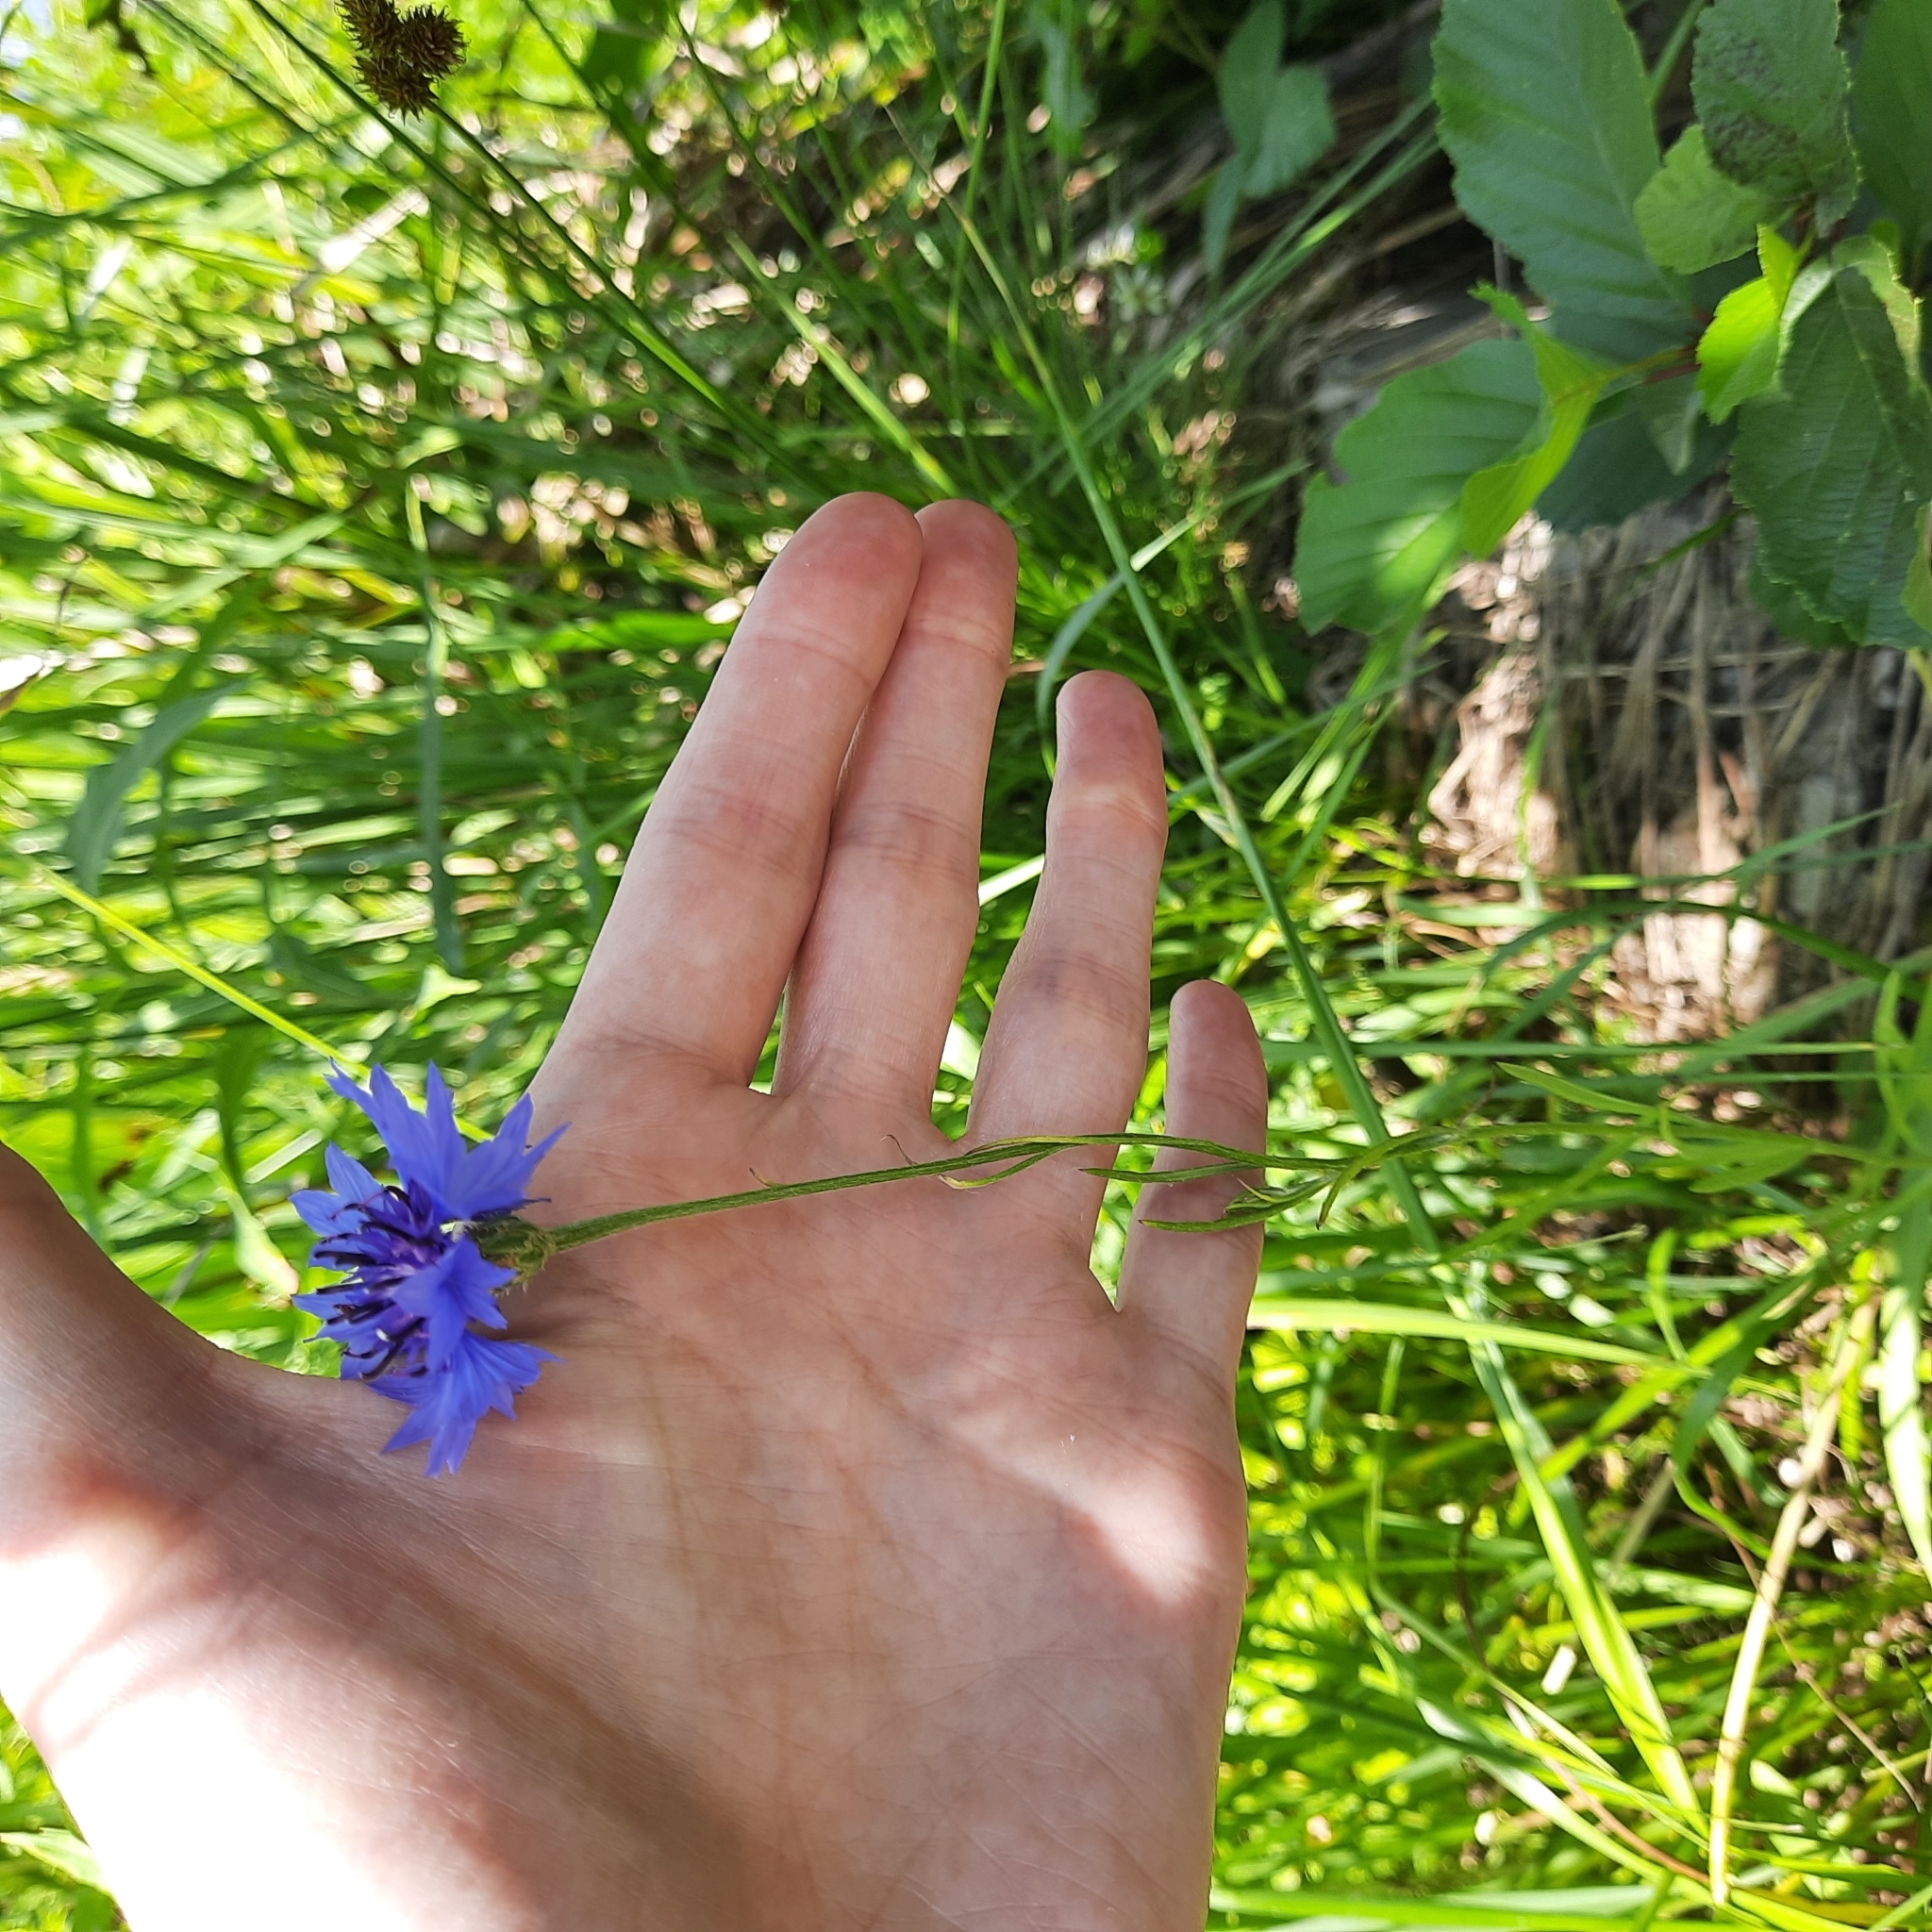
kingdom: Plantae
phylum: Tracheophyta
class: Magnoliopsida
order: Asterales
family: Asteraceae
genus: Centaurea
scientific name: Centaurea cyanus
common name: Cornflower
